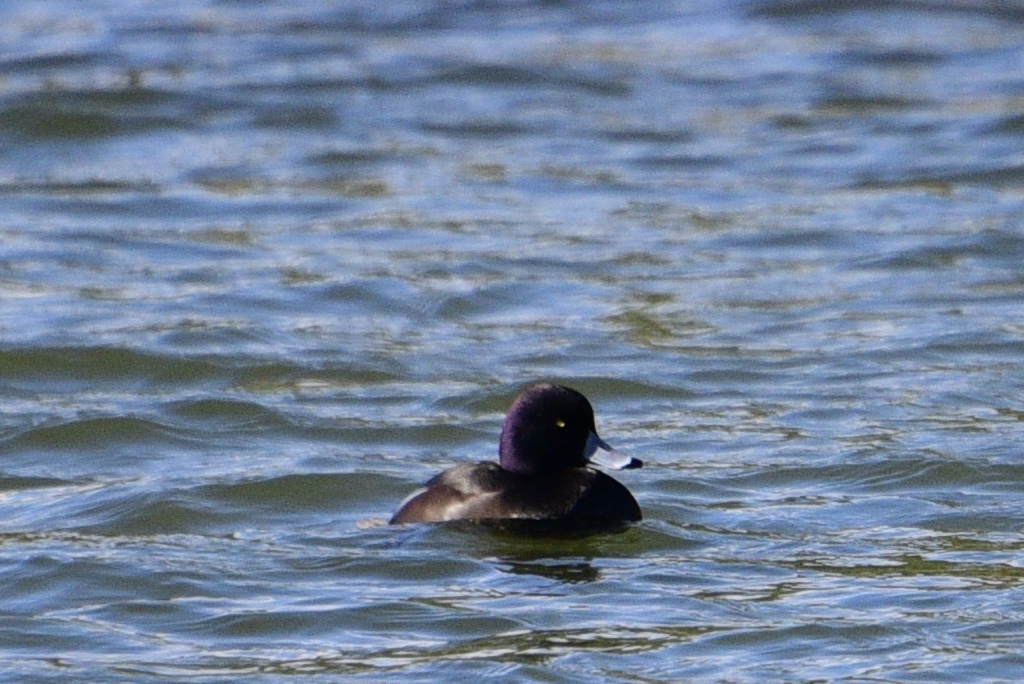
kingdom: Animalia
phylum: Chordata
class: Aves
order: Anseriformes
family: Anatidae
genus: Aythya
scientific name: Aythya novaeseelandiae
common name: New zealand scaup
